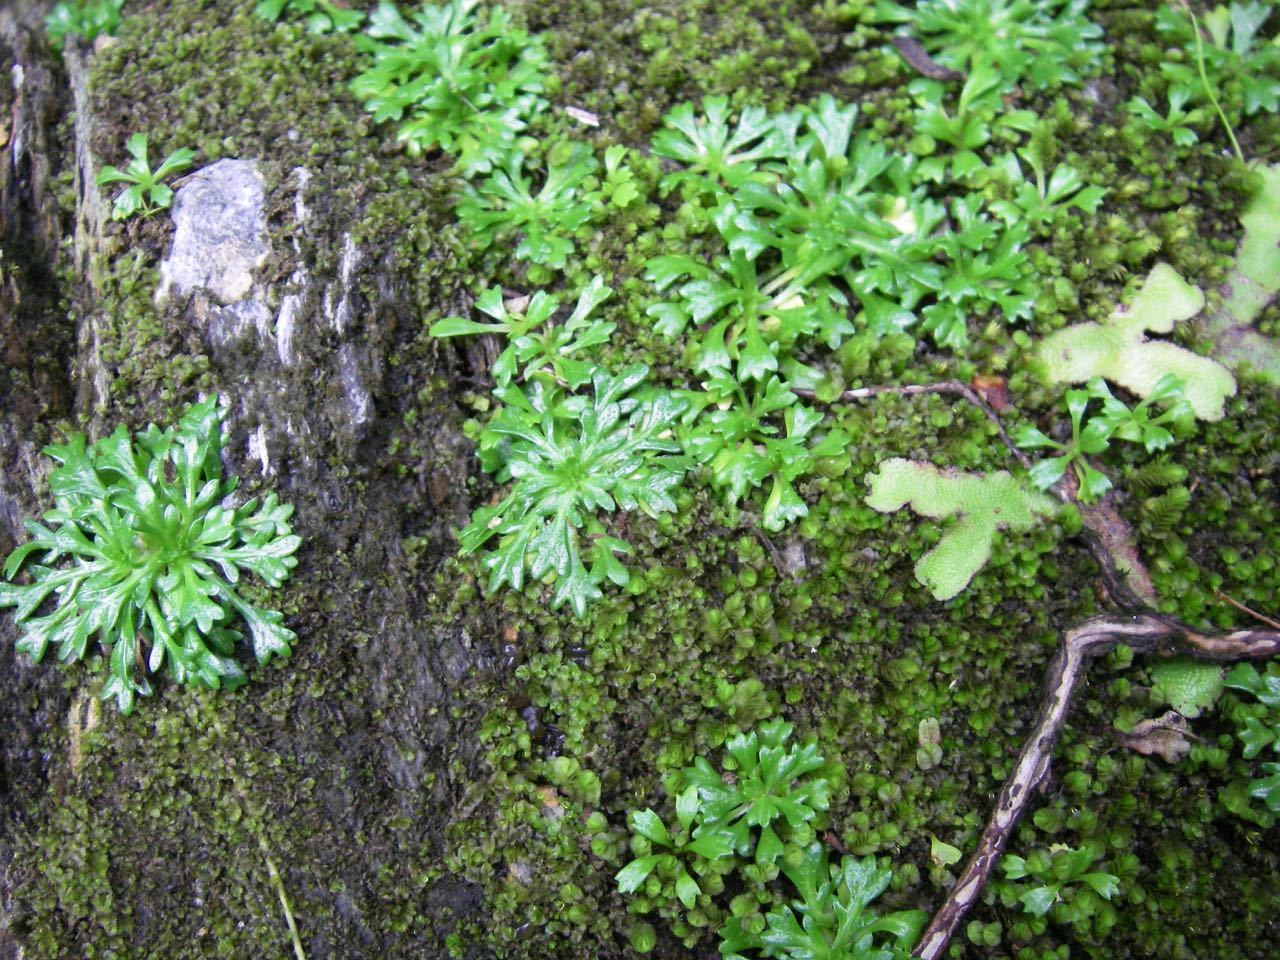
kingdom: Plantae
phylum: Tracheophyta
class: Magnoliopsida
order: Asterales
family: Asteraceae
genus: Lagenophora
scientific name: Lagenophora mikadoi
